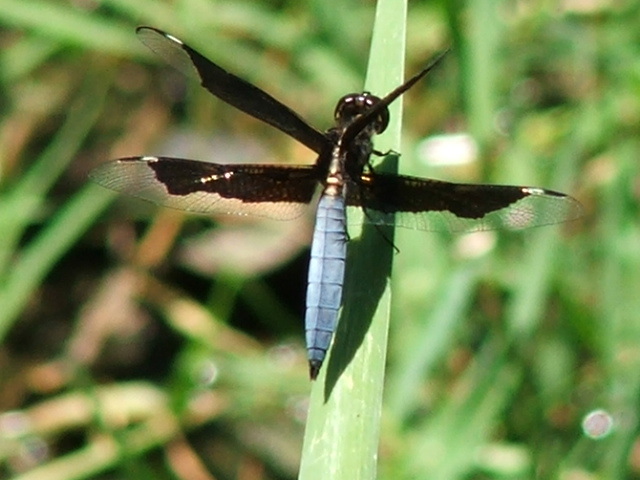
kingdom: Animalia
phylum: Arthropoda
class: Insecta
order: Odonata
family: Libellulidae
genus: Palpopleura
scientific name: Palpopleura lucia
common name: Lucia widow
